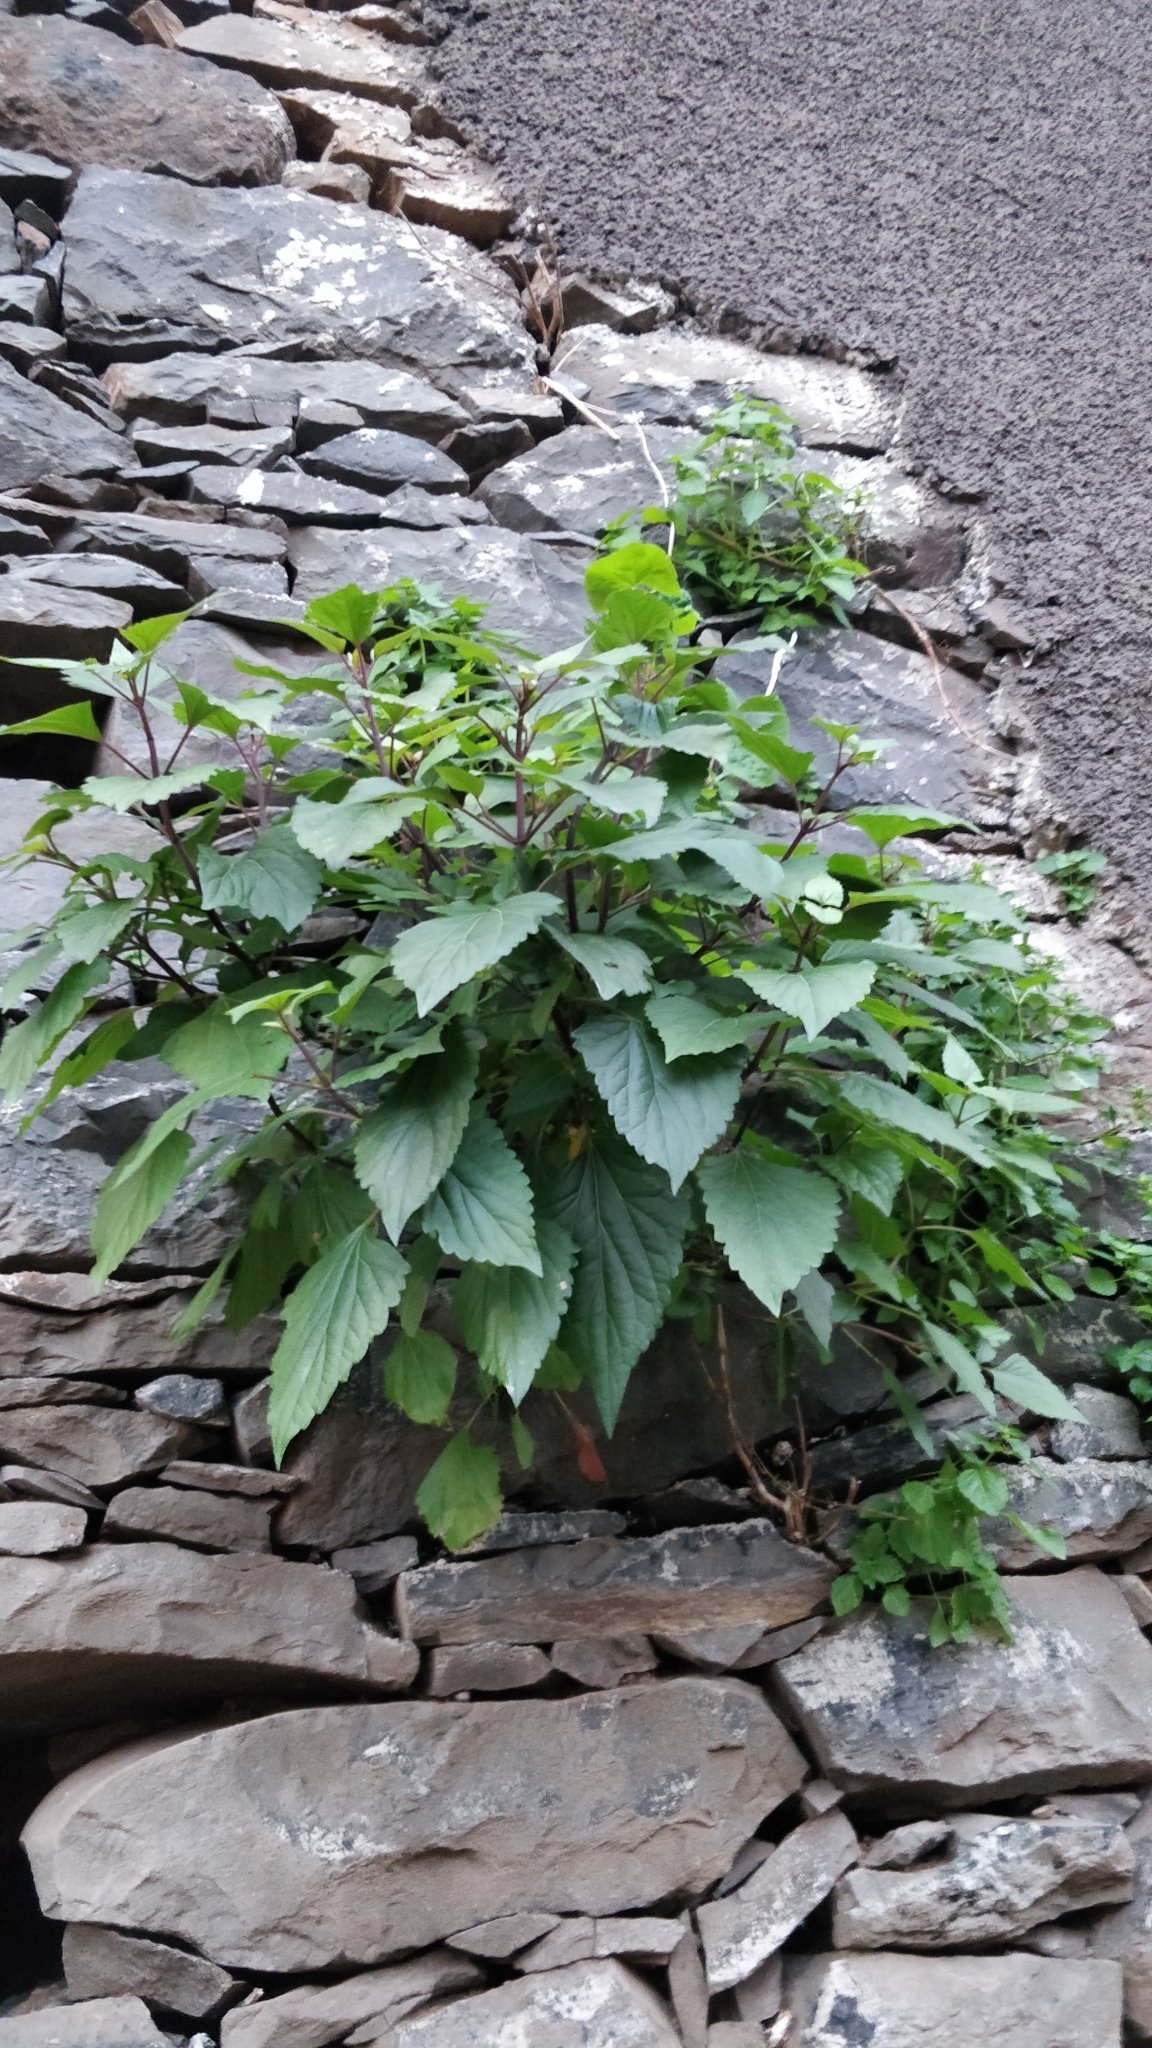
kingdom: Plantae
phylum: Tracheophyta
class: Magnoliopsida
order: Asterales
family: Asteraceae
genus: Ageratina
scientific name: Ageratina adenophora
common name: Sticky snakeroot
